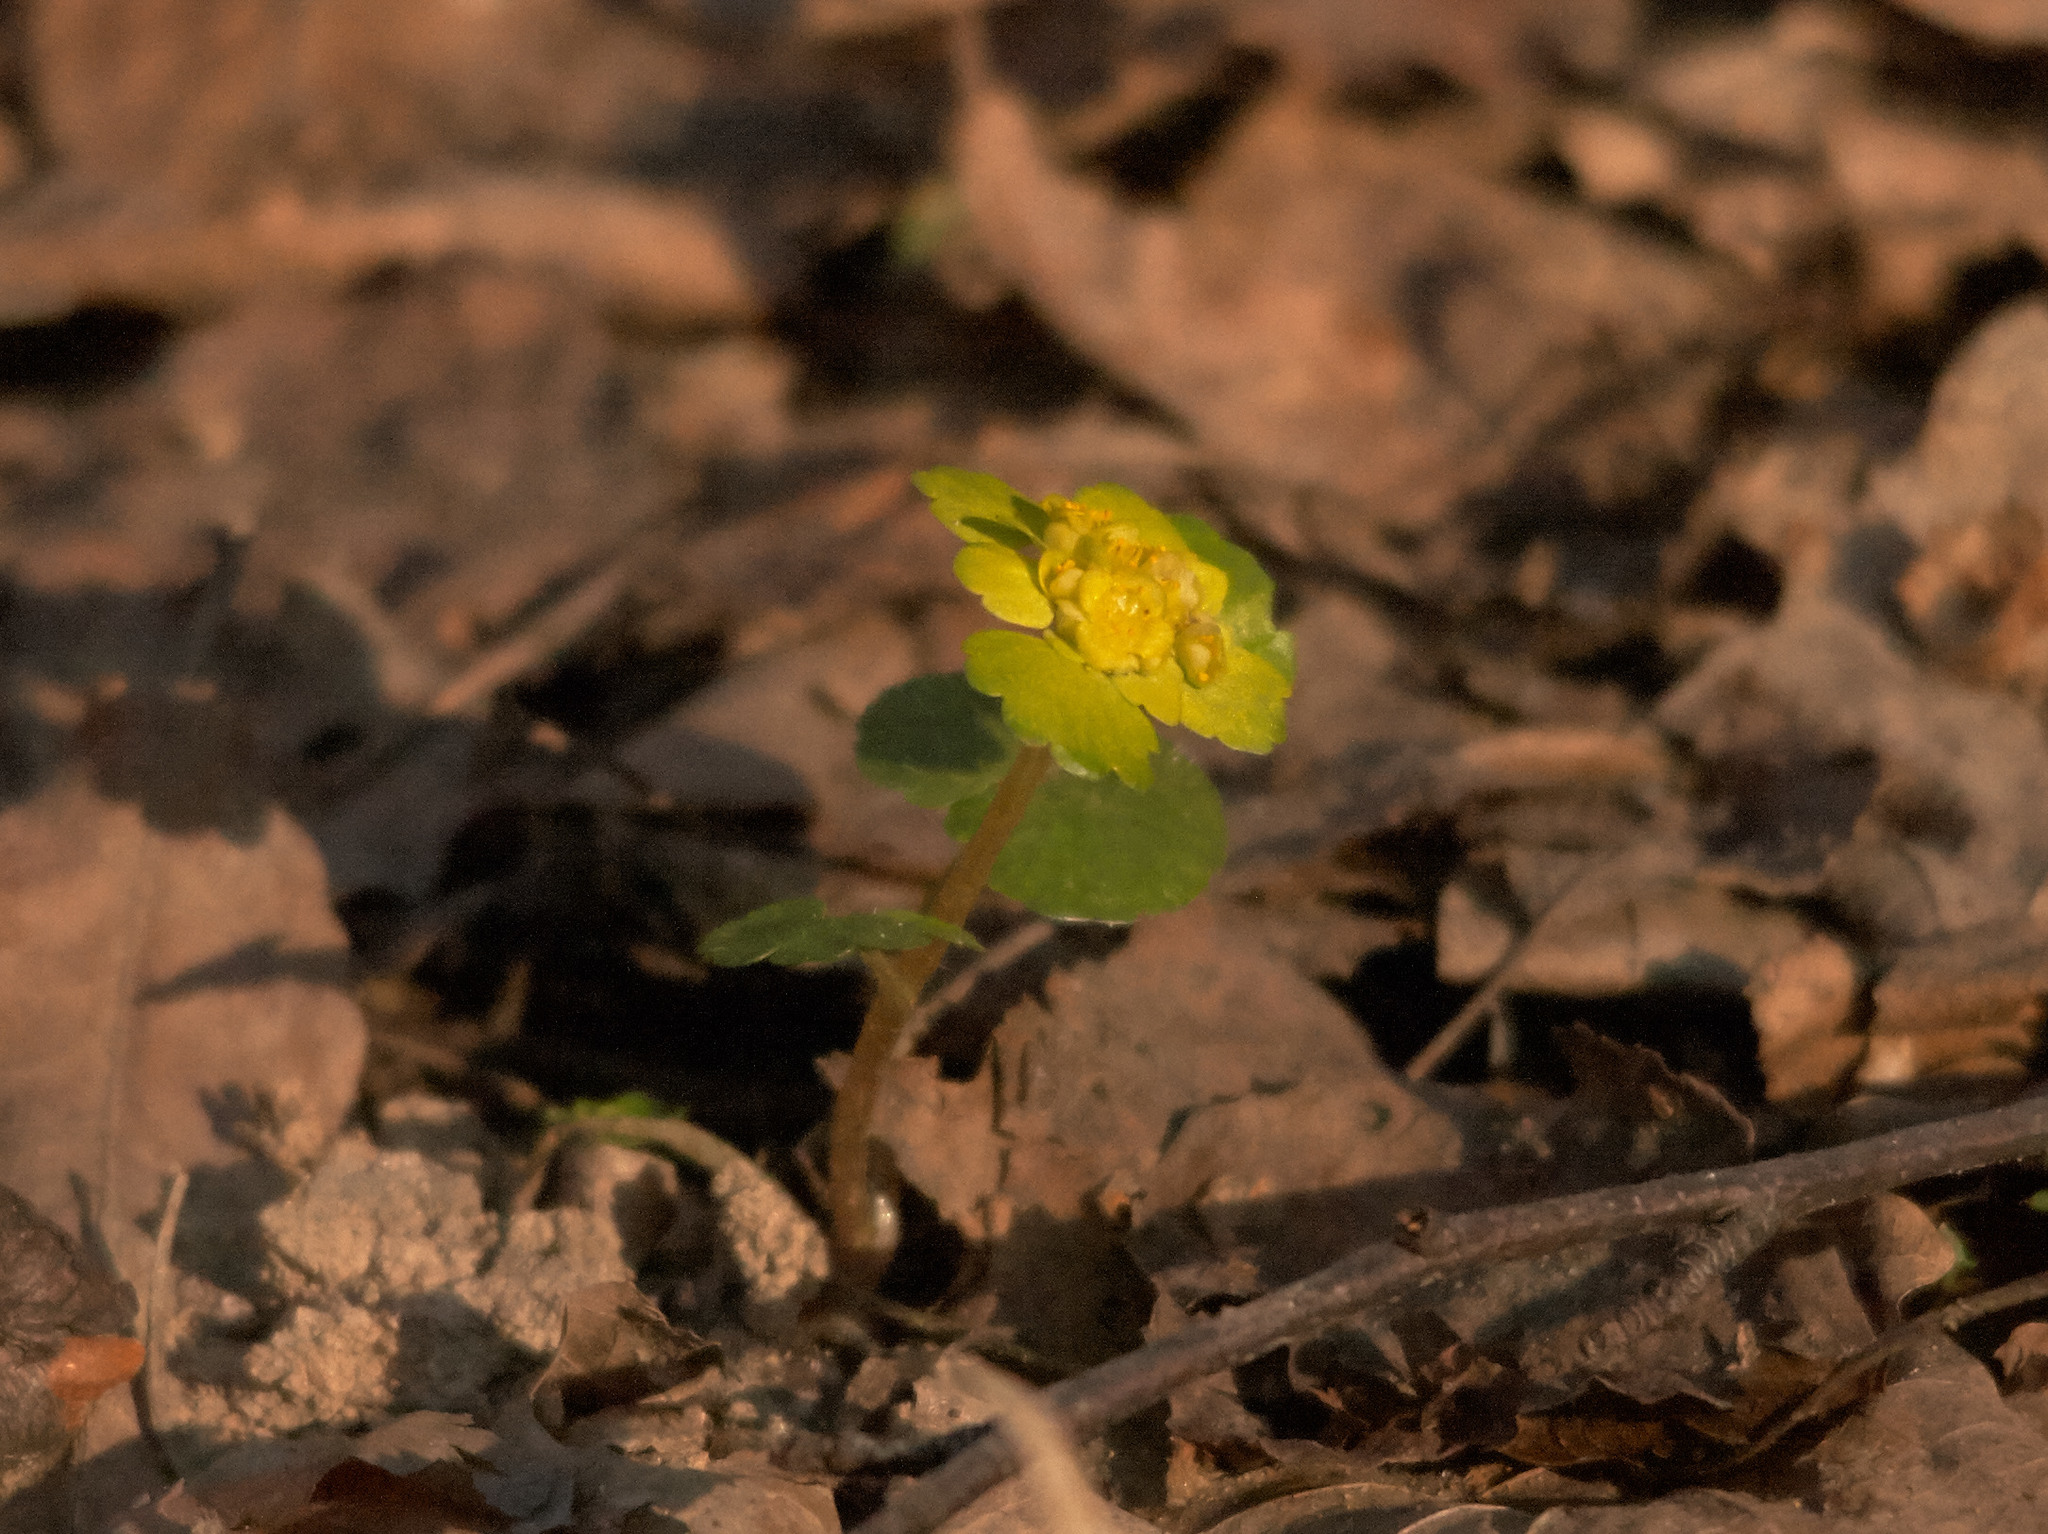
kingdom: Plantae
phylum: Tracheophyta
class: Magnoliopsida
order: Saxifragales
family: Saxifragaceae
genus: Chrysosplenium
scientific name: Chrysosplenium alternifolium
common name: Alternate-leaved golden-saxifrage
